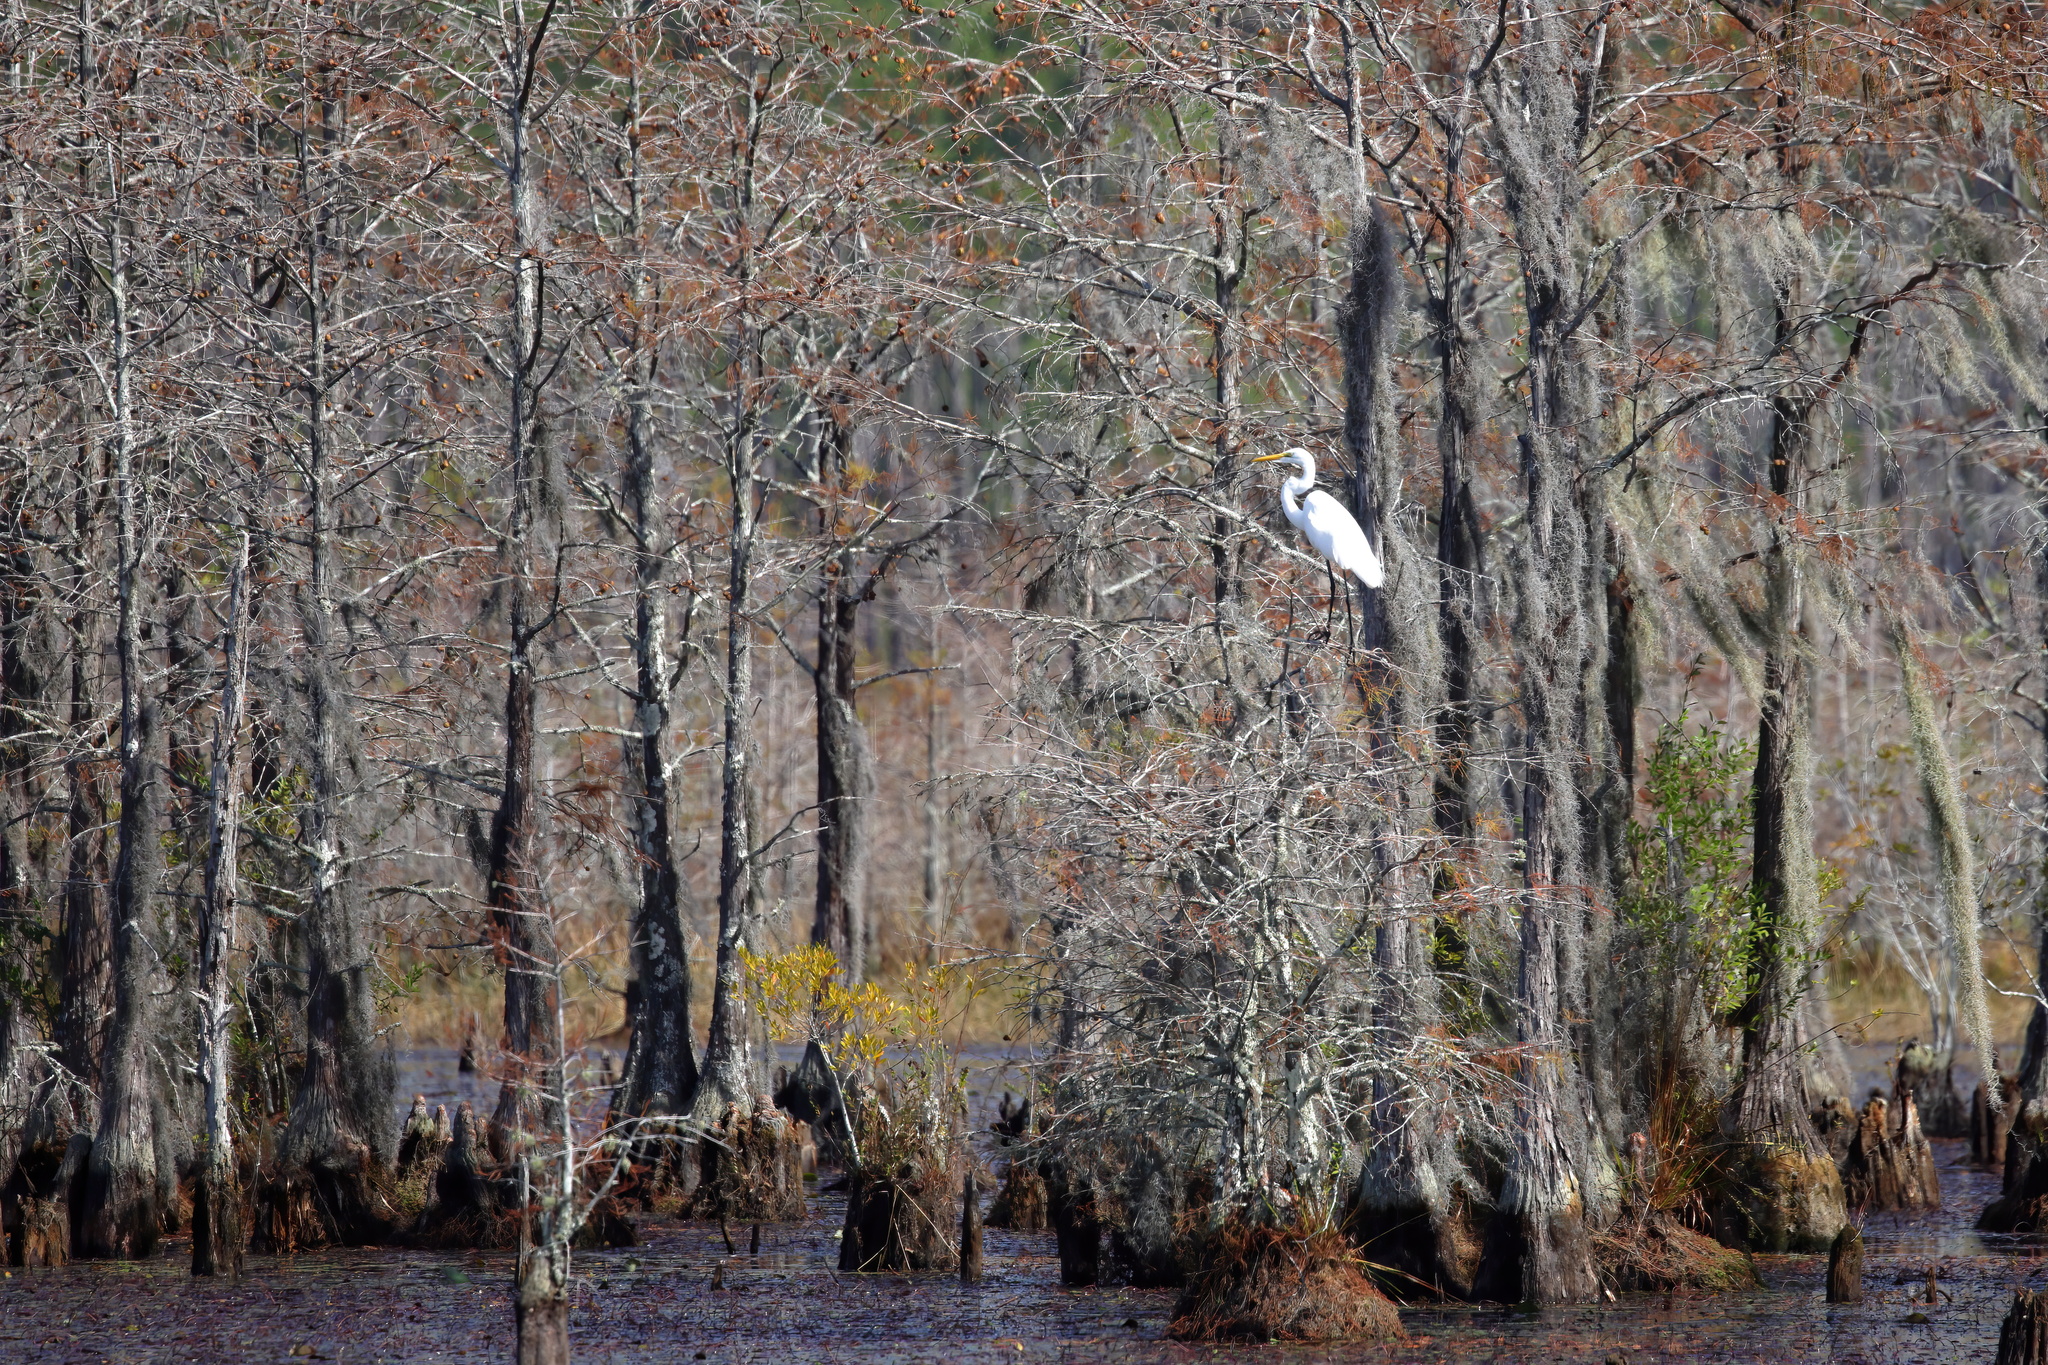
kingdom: Animalia
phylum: Chordata
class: Aves
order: Pelecaniformes
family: Ardeidae
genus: Ardea
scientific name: Ardea alba
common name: Great egret
